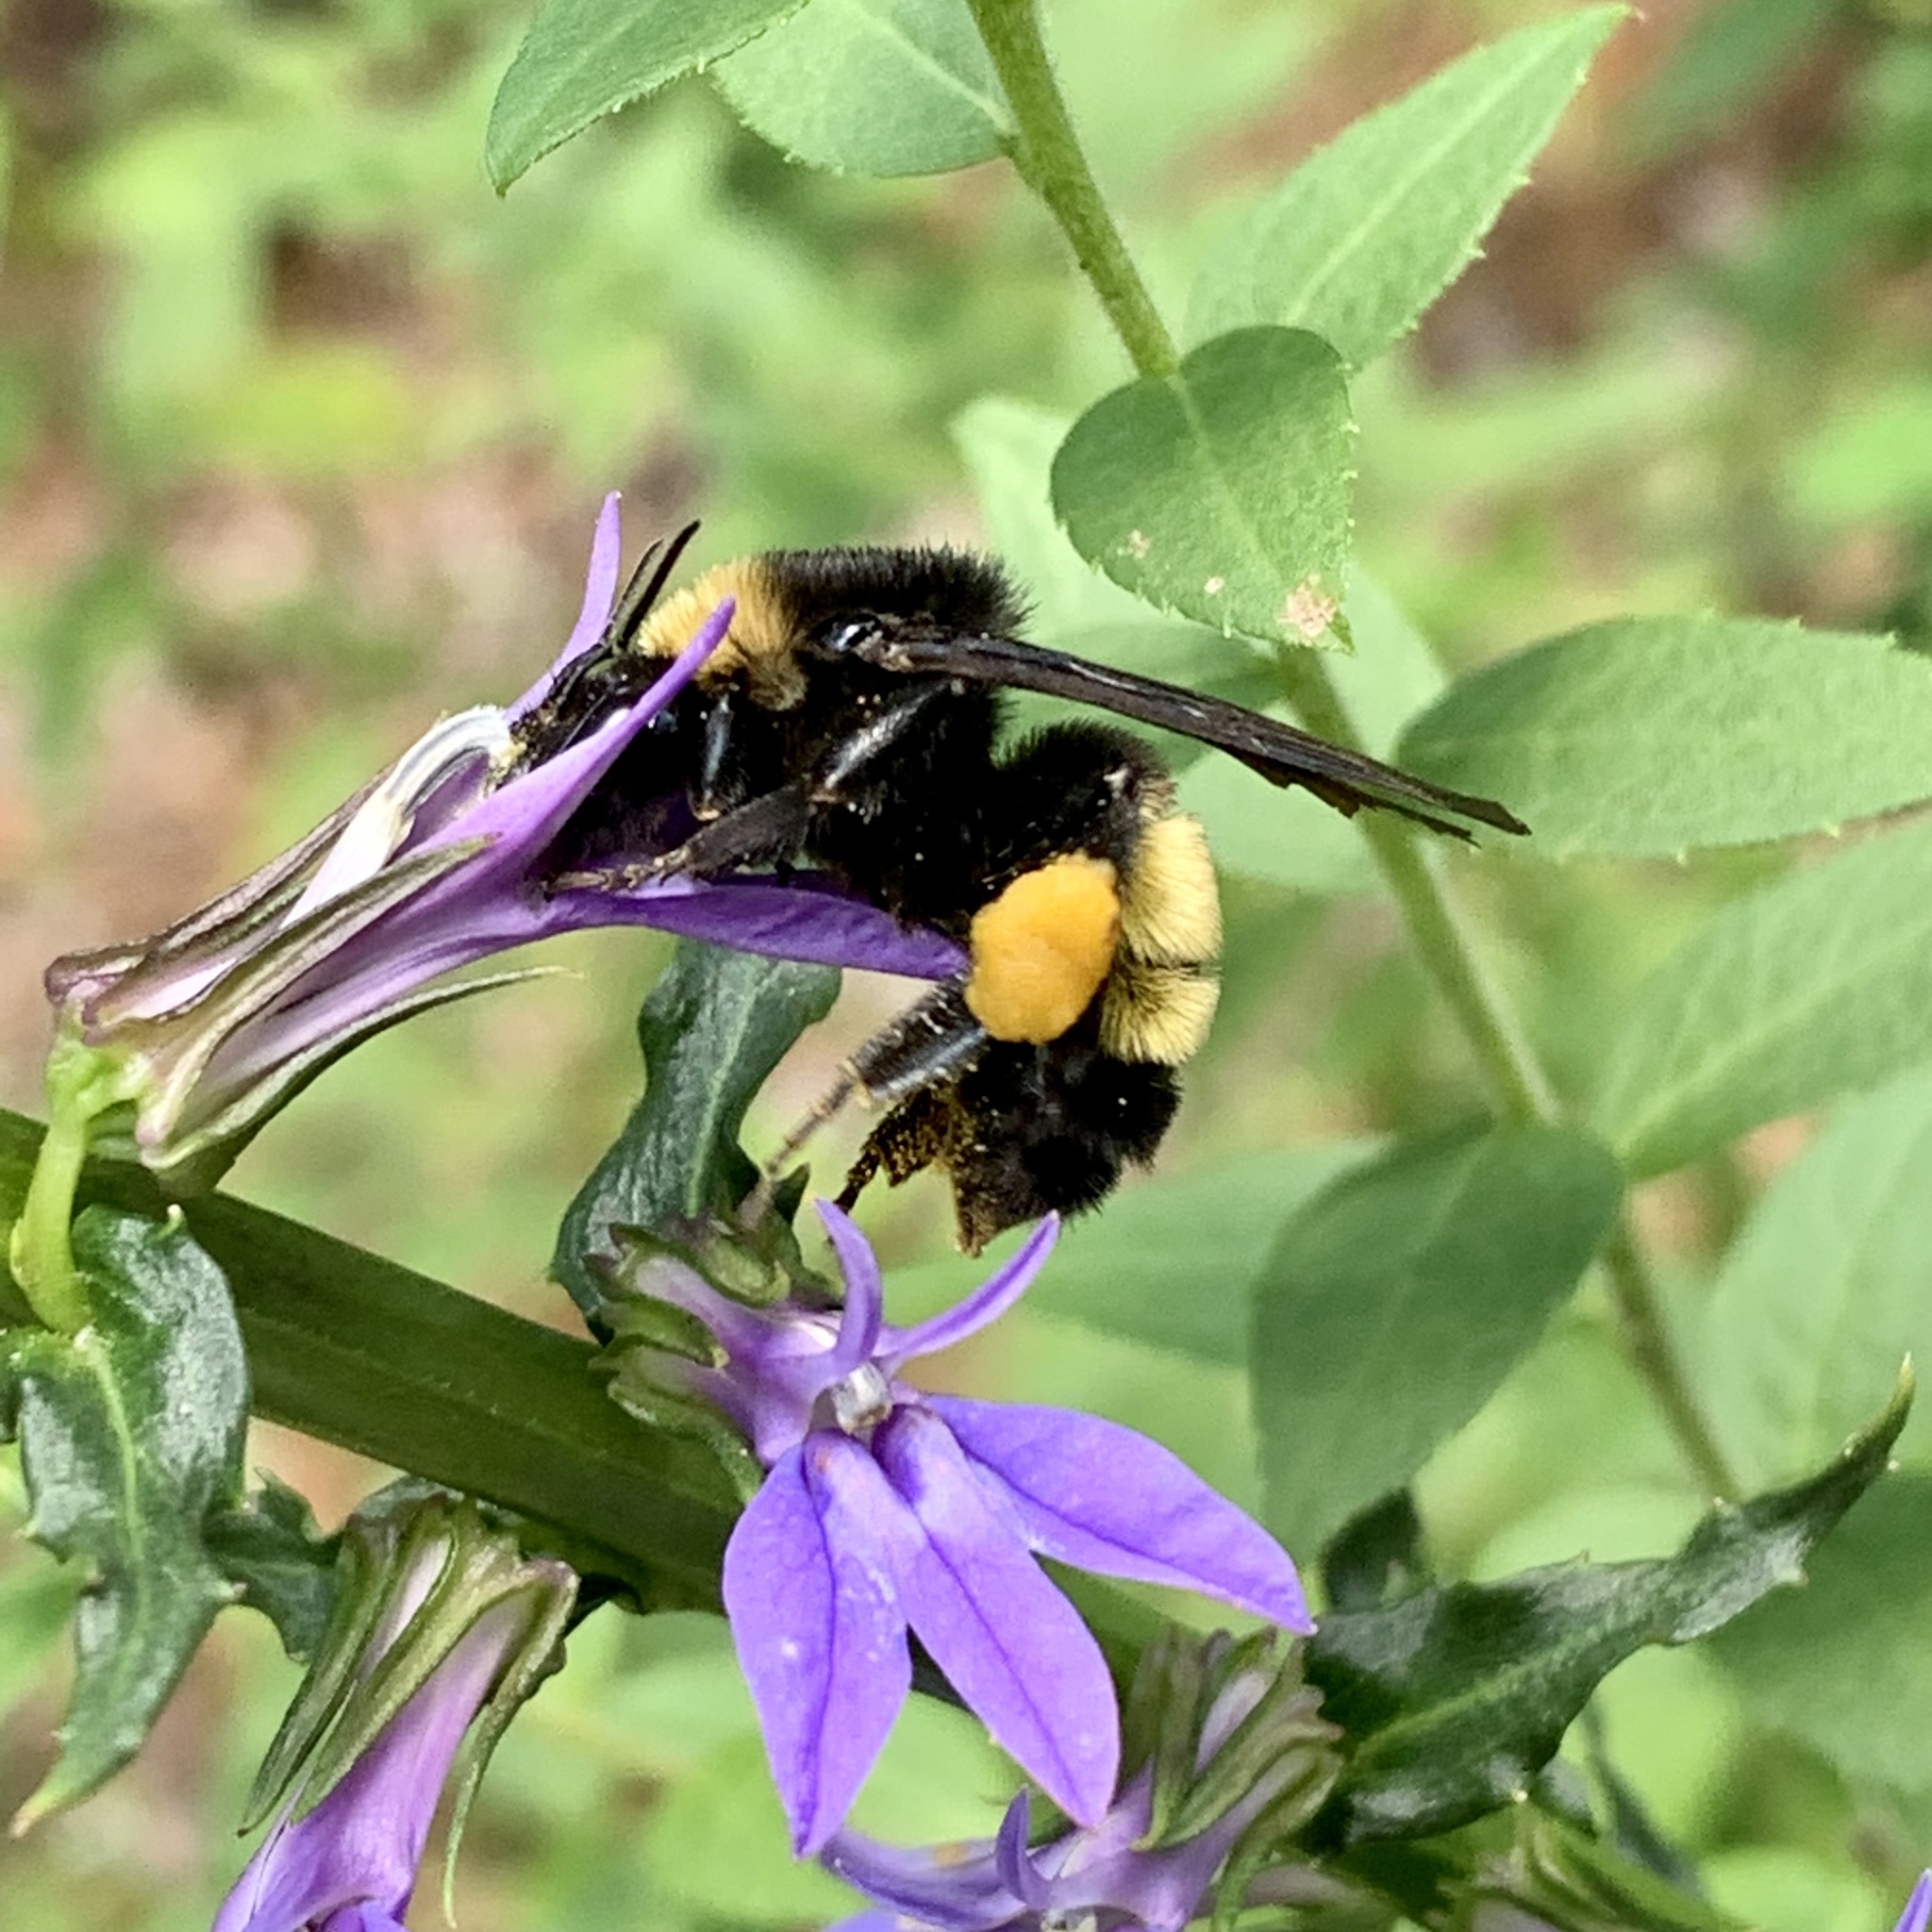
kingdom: Animalia
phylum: Arthropoda
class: Insecta
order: Hymenoptera
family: Apidae
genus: Bombus
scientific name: Bombus pensylvanicus
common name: Bumble bee
